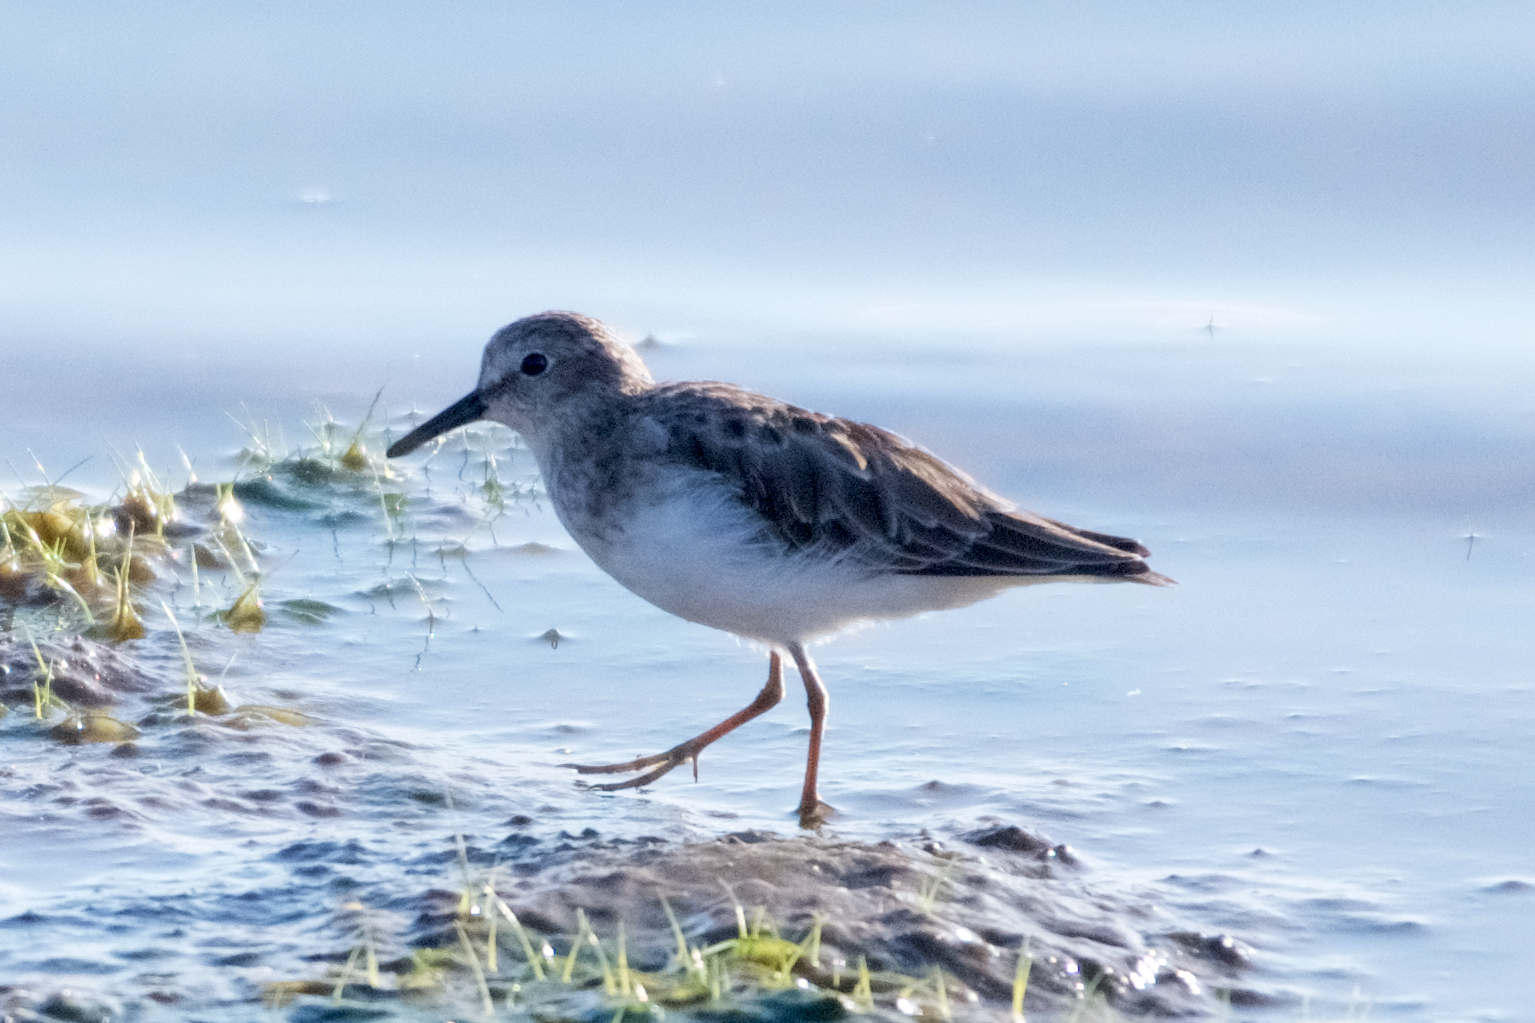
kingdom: Animalia
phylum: Chordata
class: Aves
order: Charadriiformes
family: Scolopacidae
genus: Calidris
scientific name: Calidris minutilla
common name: Least sandpiper
